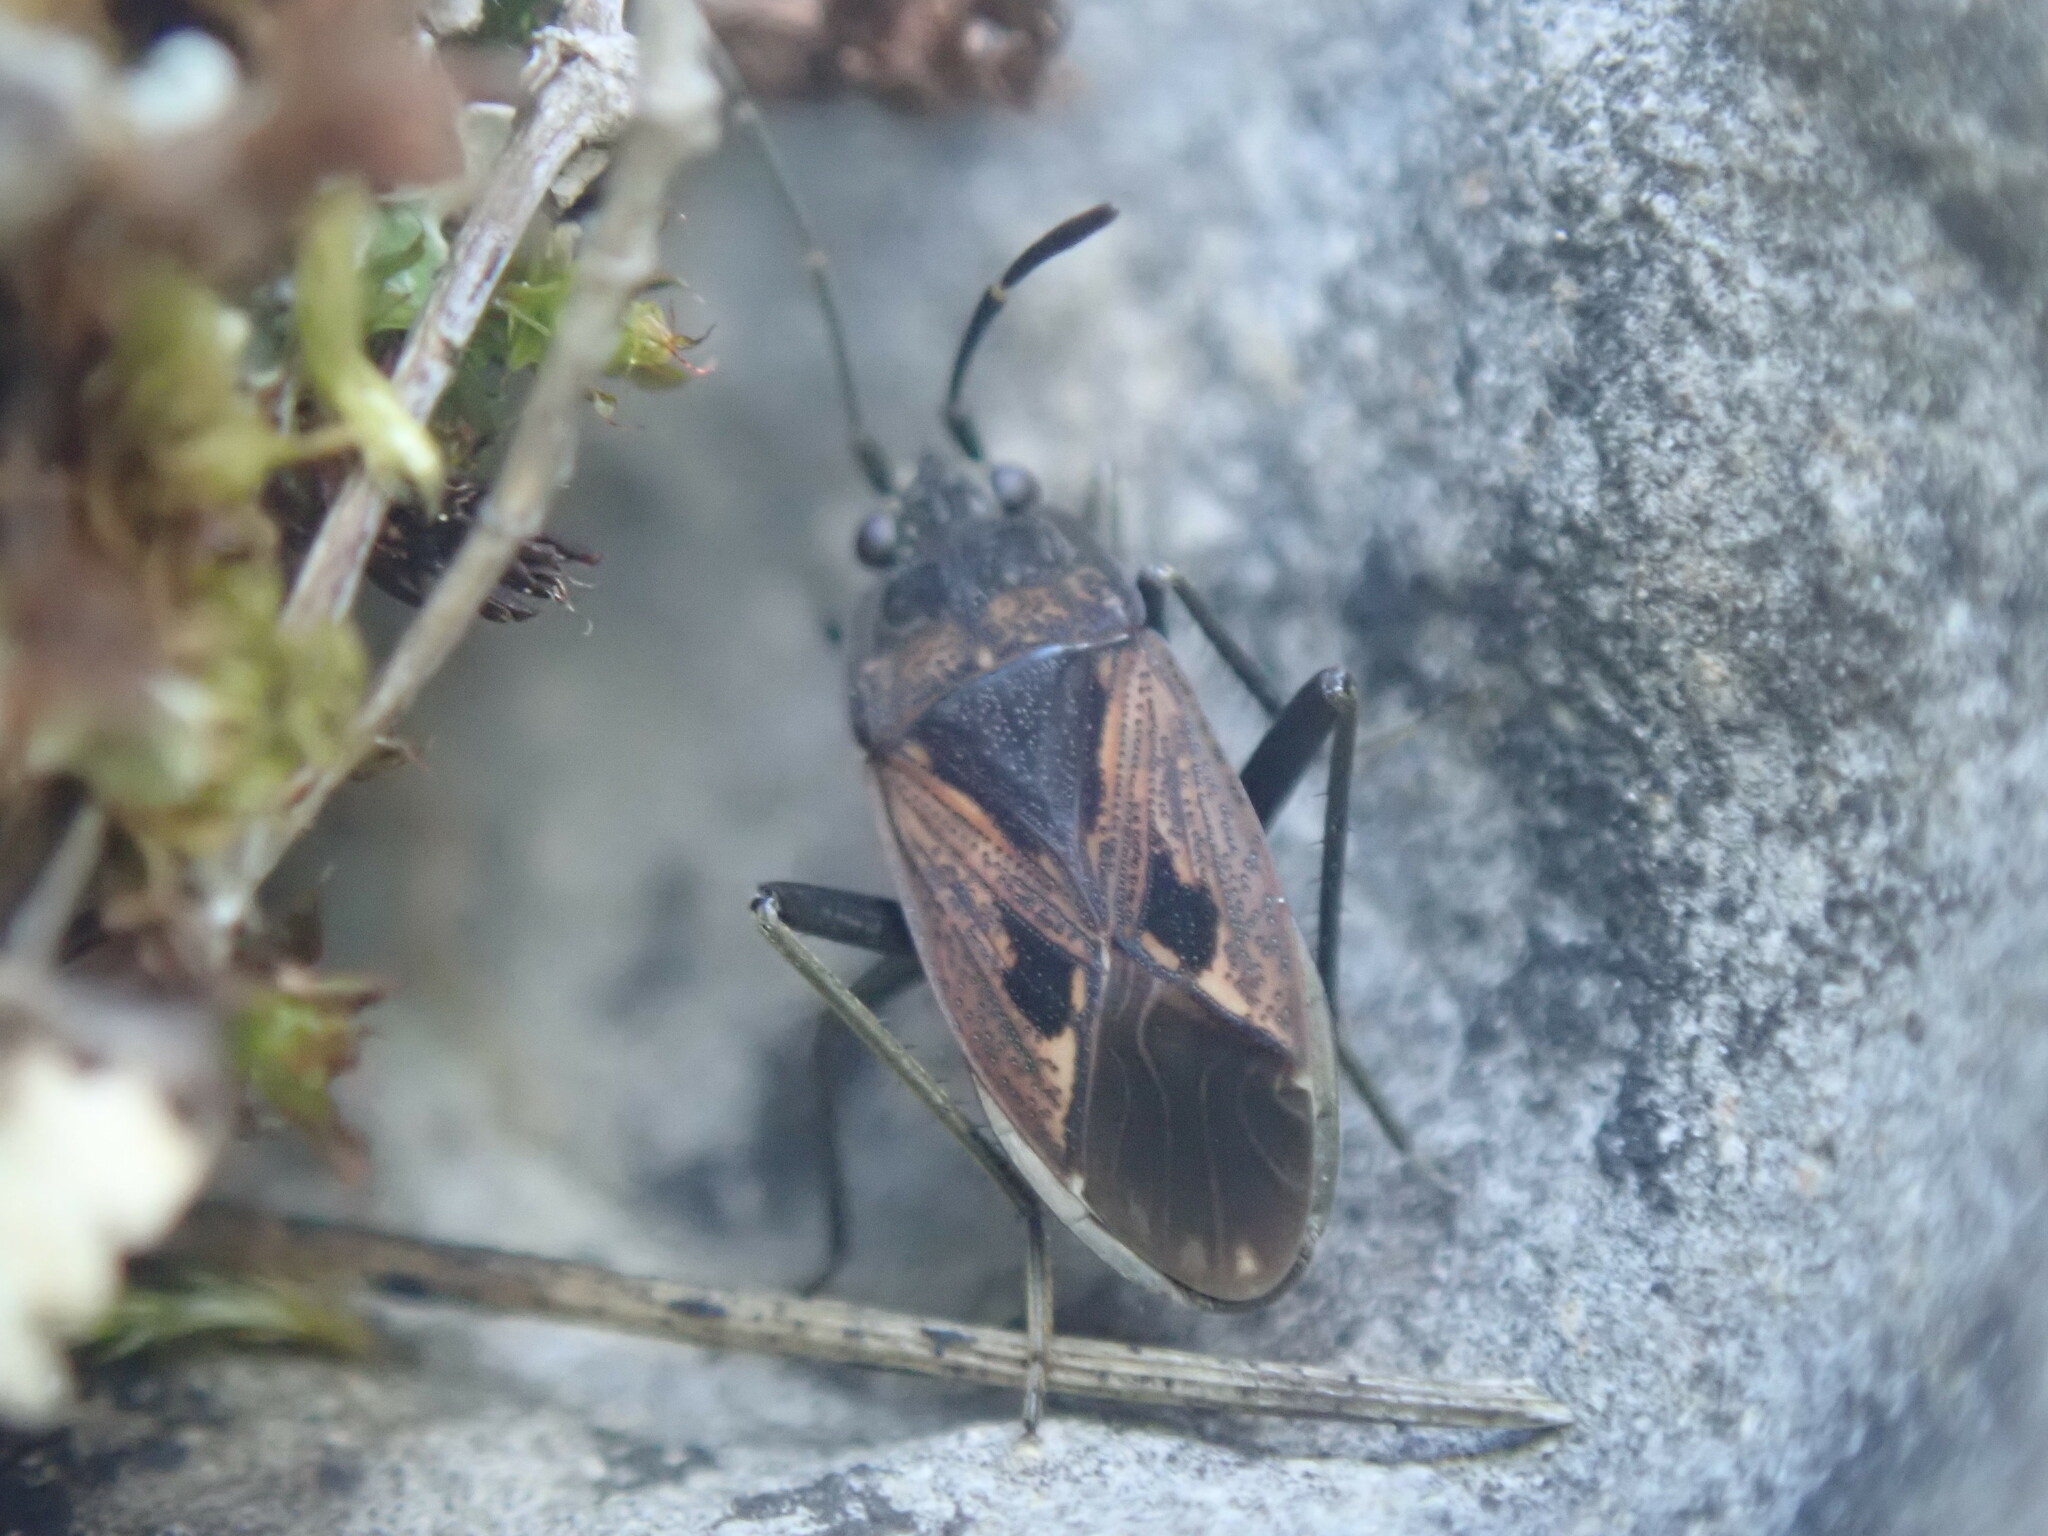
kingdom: Animalia
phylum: Arthropoda
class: Insecta
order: Hemiptera
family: Rhyparochromidae
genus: Rhyparochromus
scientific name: Rhyparochromus pini
